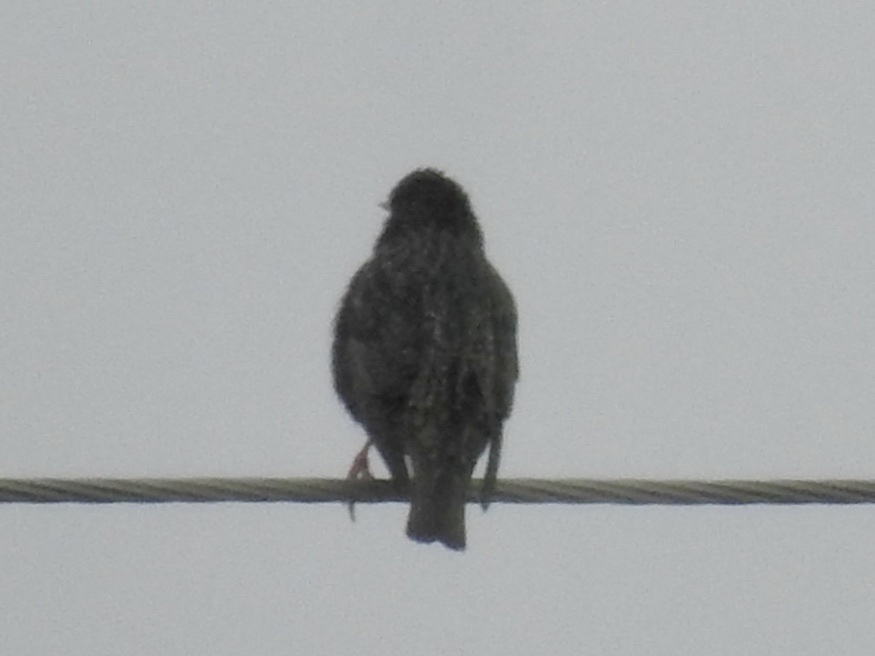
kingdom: Animalia
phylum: Chordata
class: Aves
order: Passeriformes
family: Sturnidae
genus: Sturnus
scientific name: Sturnus vulgaris
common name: Common starling
